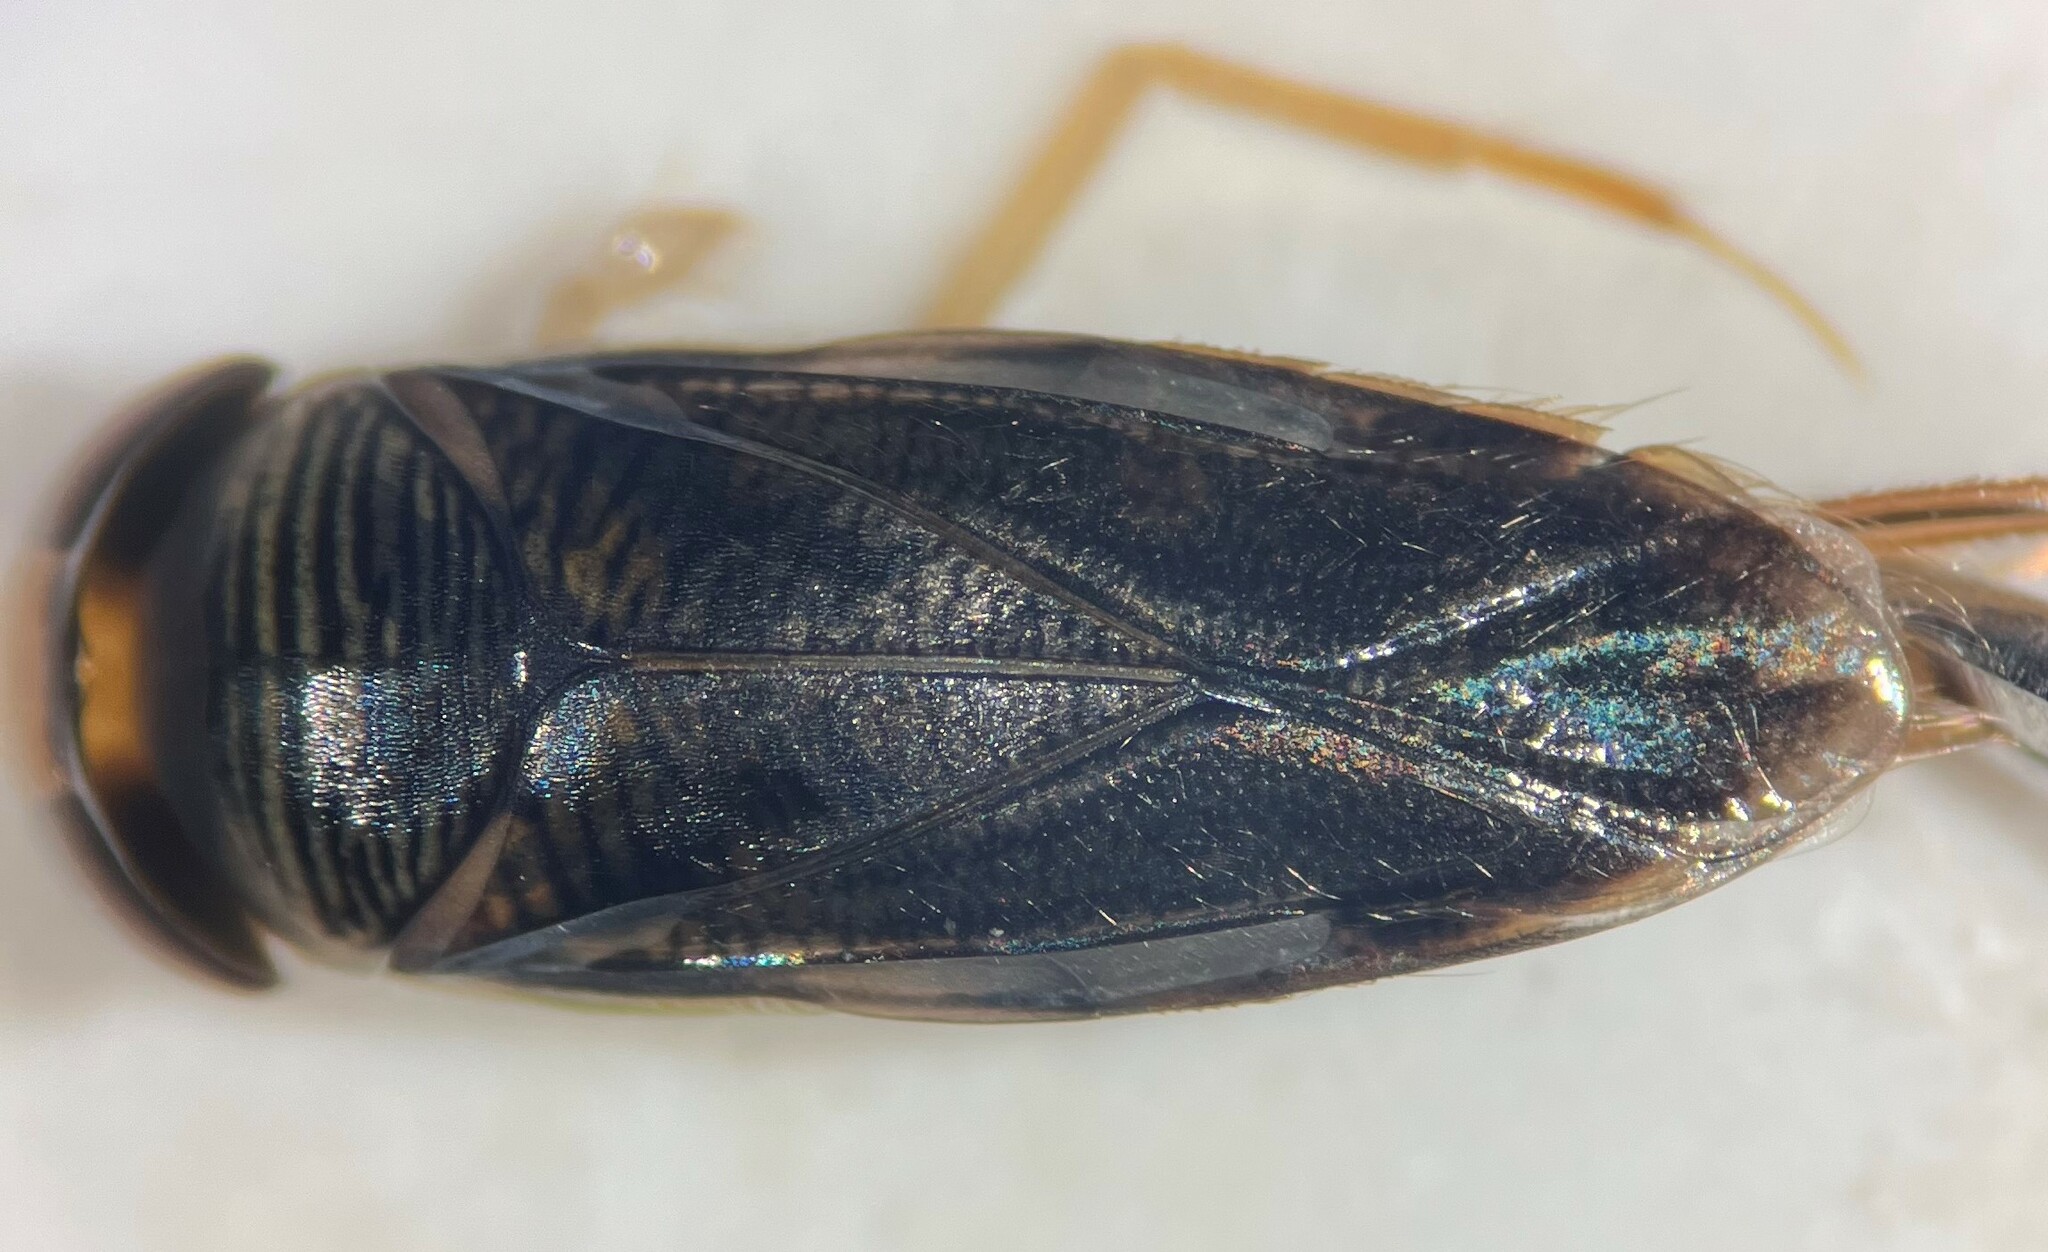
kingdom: Animalia
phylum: Arthropoda
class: Insecta
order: Hemiptera
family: Corixidae
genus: Morphocorixa
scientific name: Morphocorixa compacta
